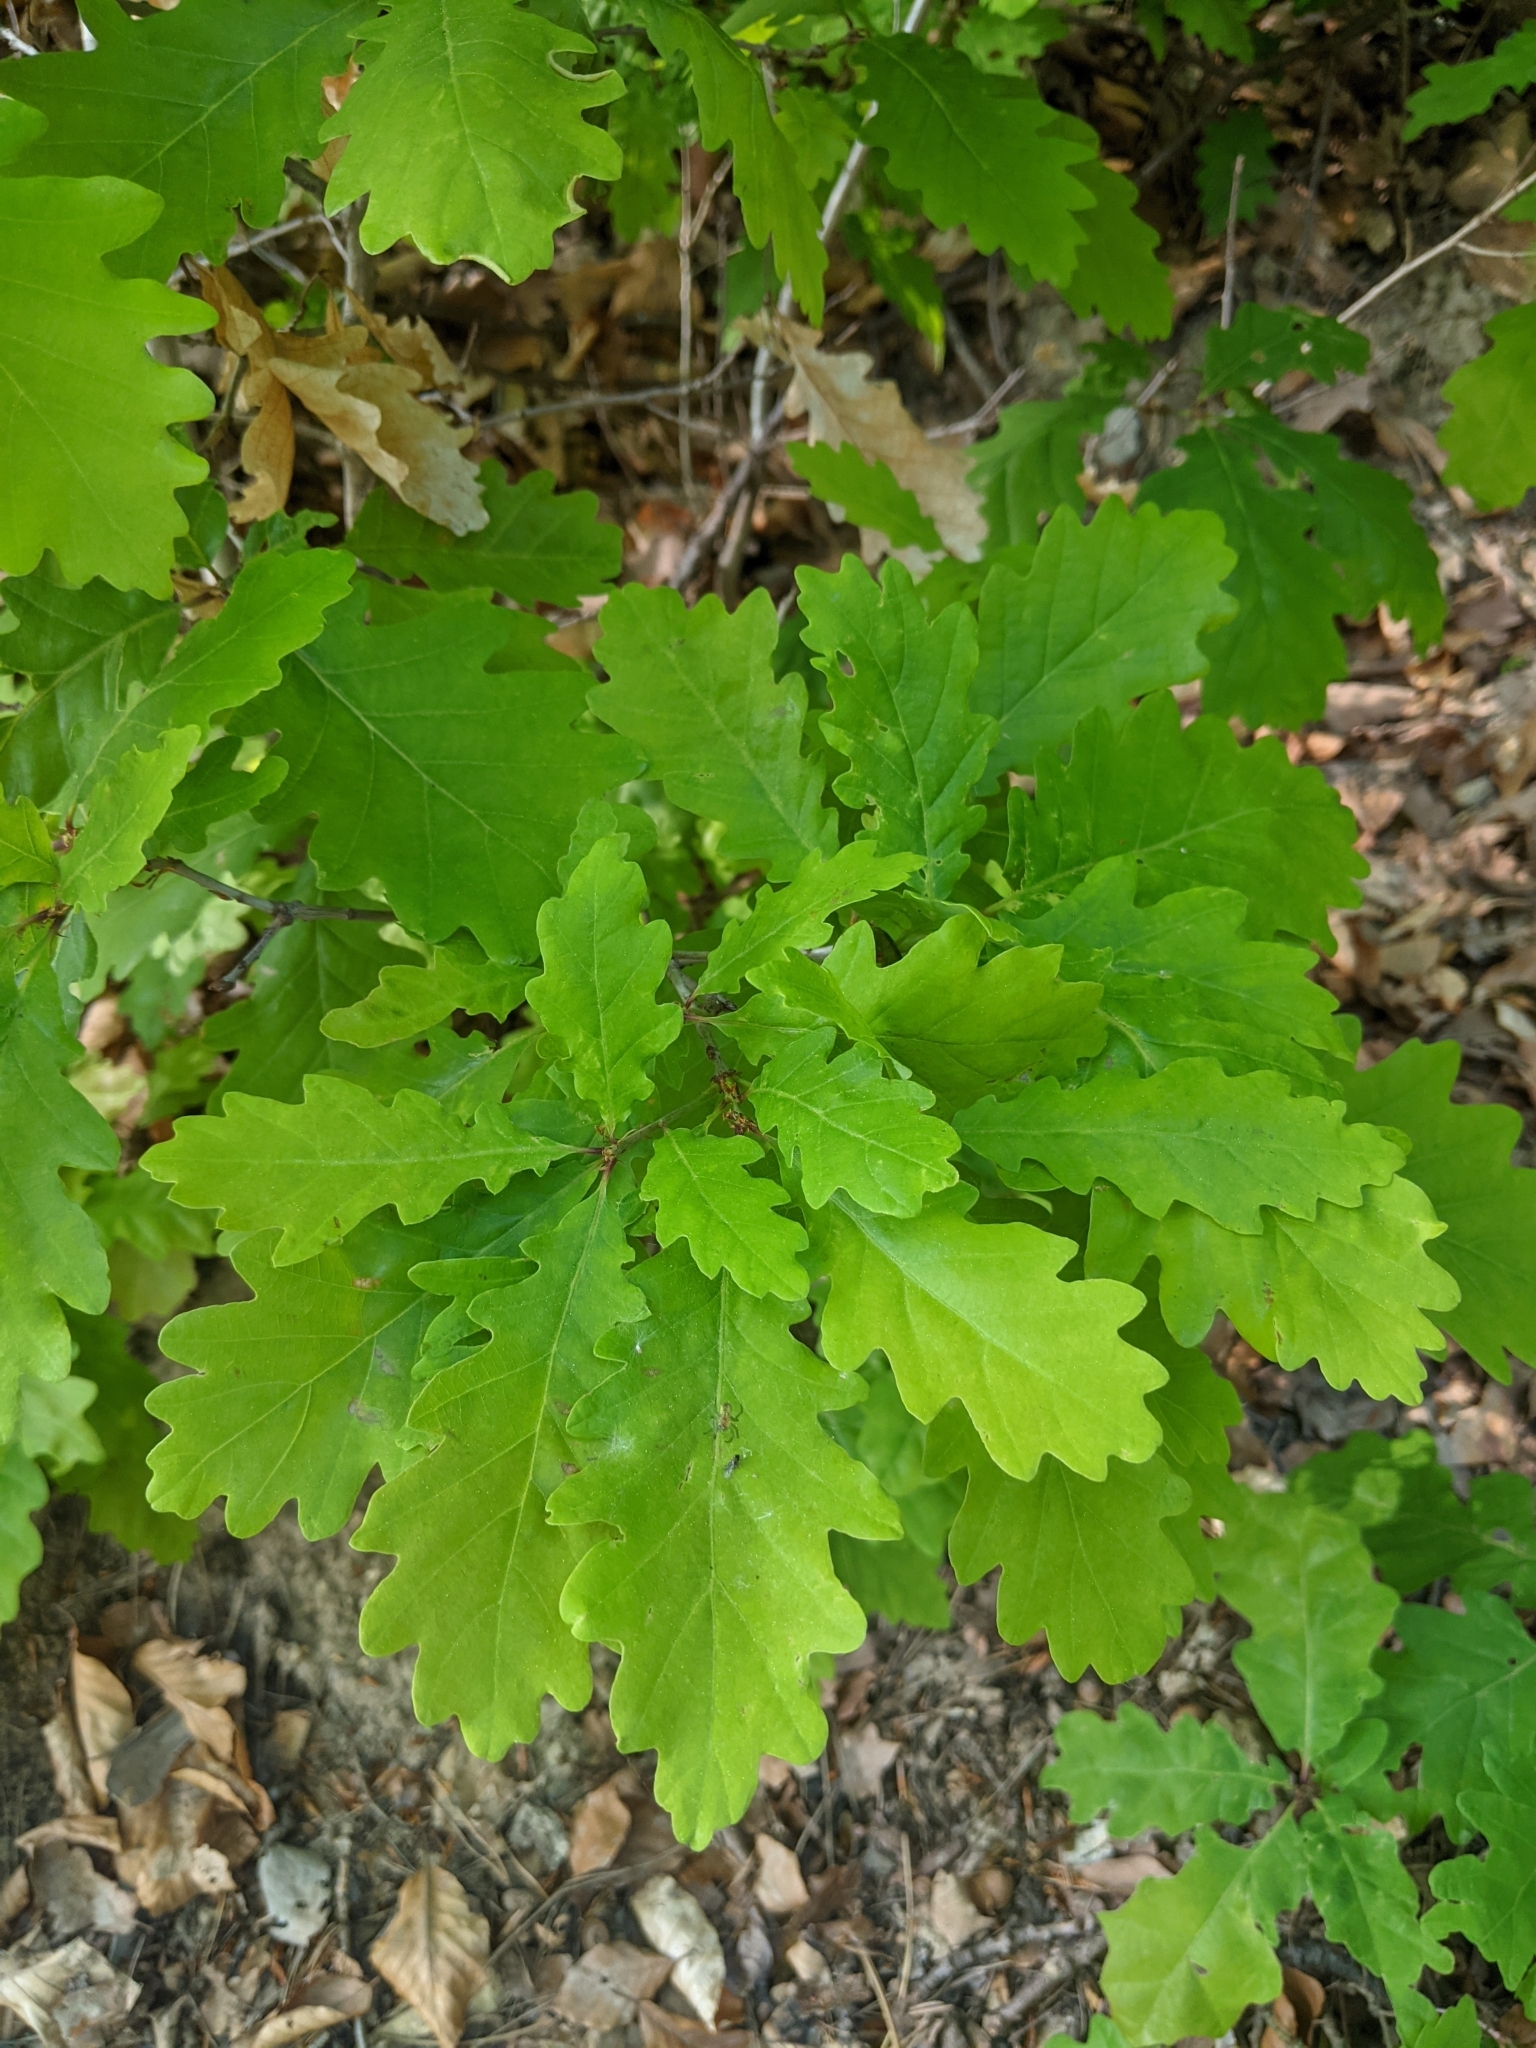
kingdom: Plantae
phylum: Tracheophyta
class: Magnoliopsida
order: Fagales
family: Fagaceae
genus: Quercus
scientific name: Quercus robur
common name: Pedunculate oak
